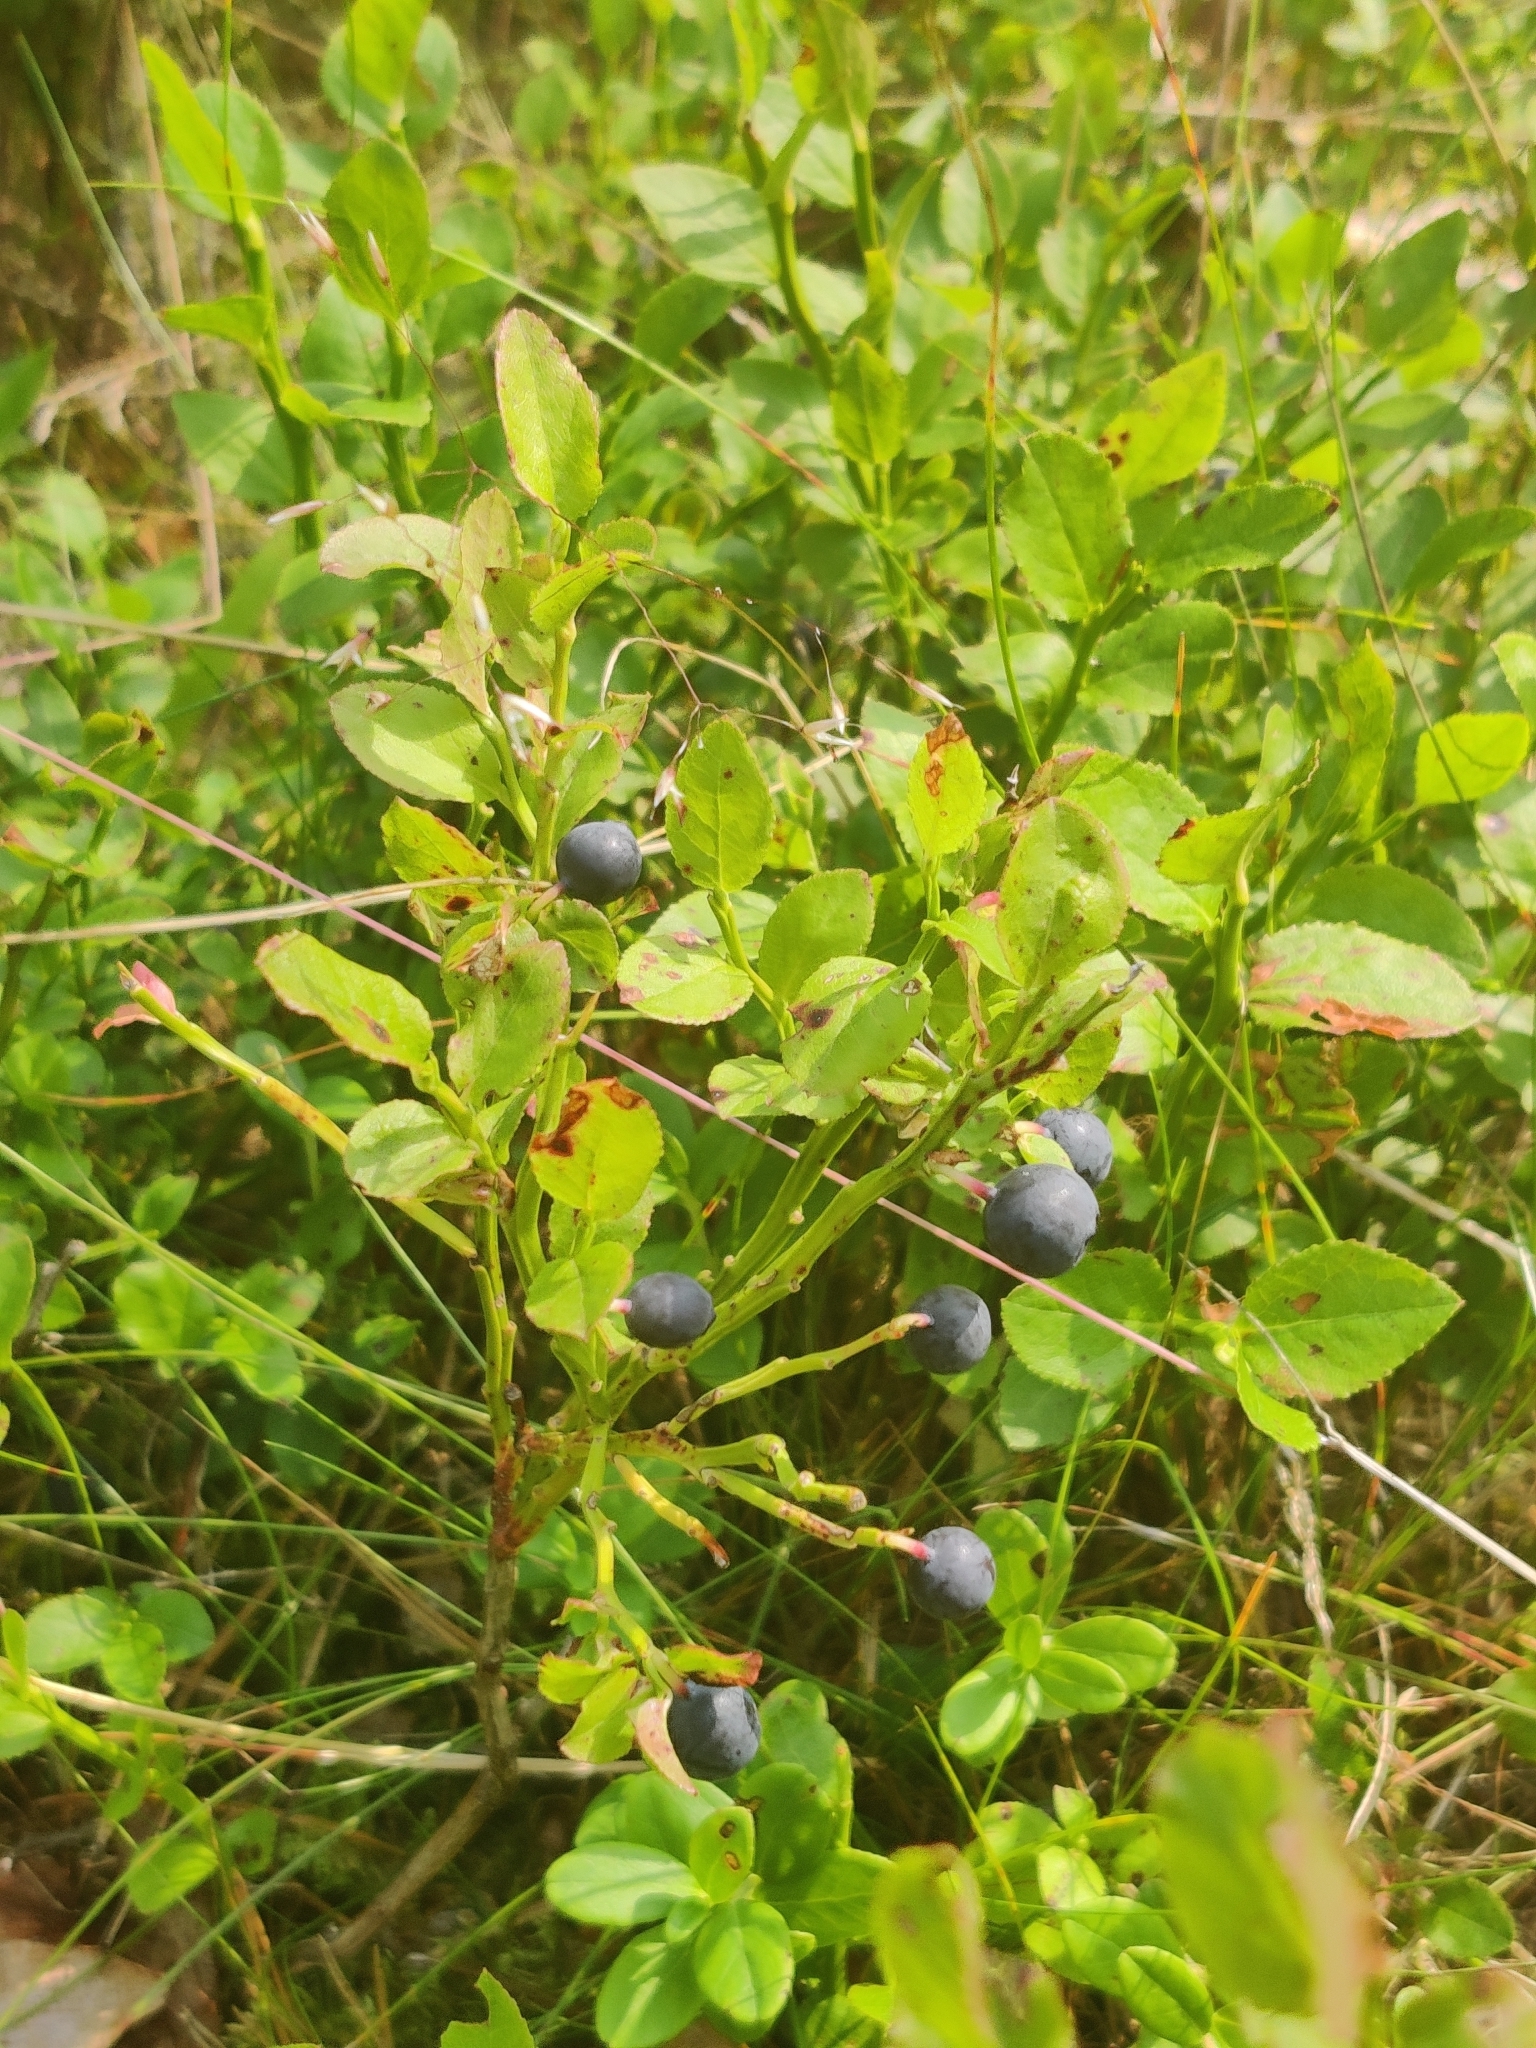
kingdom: Plantae
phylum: Tracheophyta
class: Magnoliopsida
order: Ericales
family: Ericaceae
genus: Vaccinium
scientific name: Vaccinium myrtillus
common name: Bilberry
